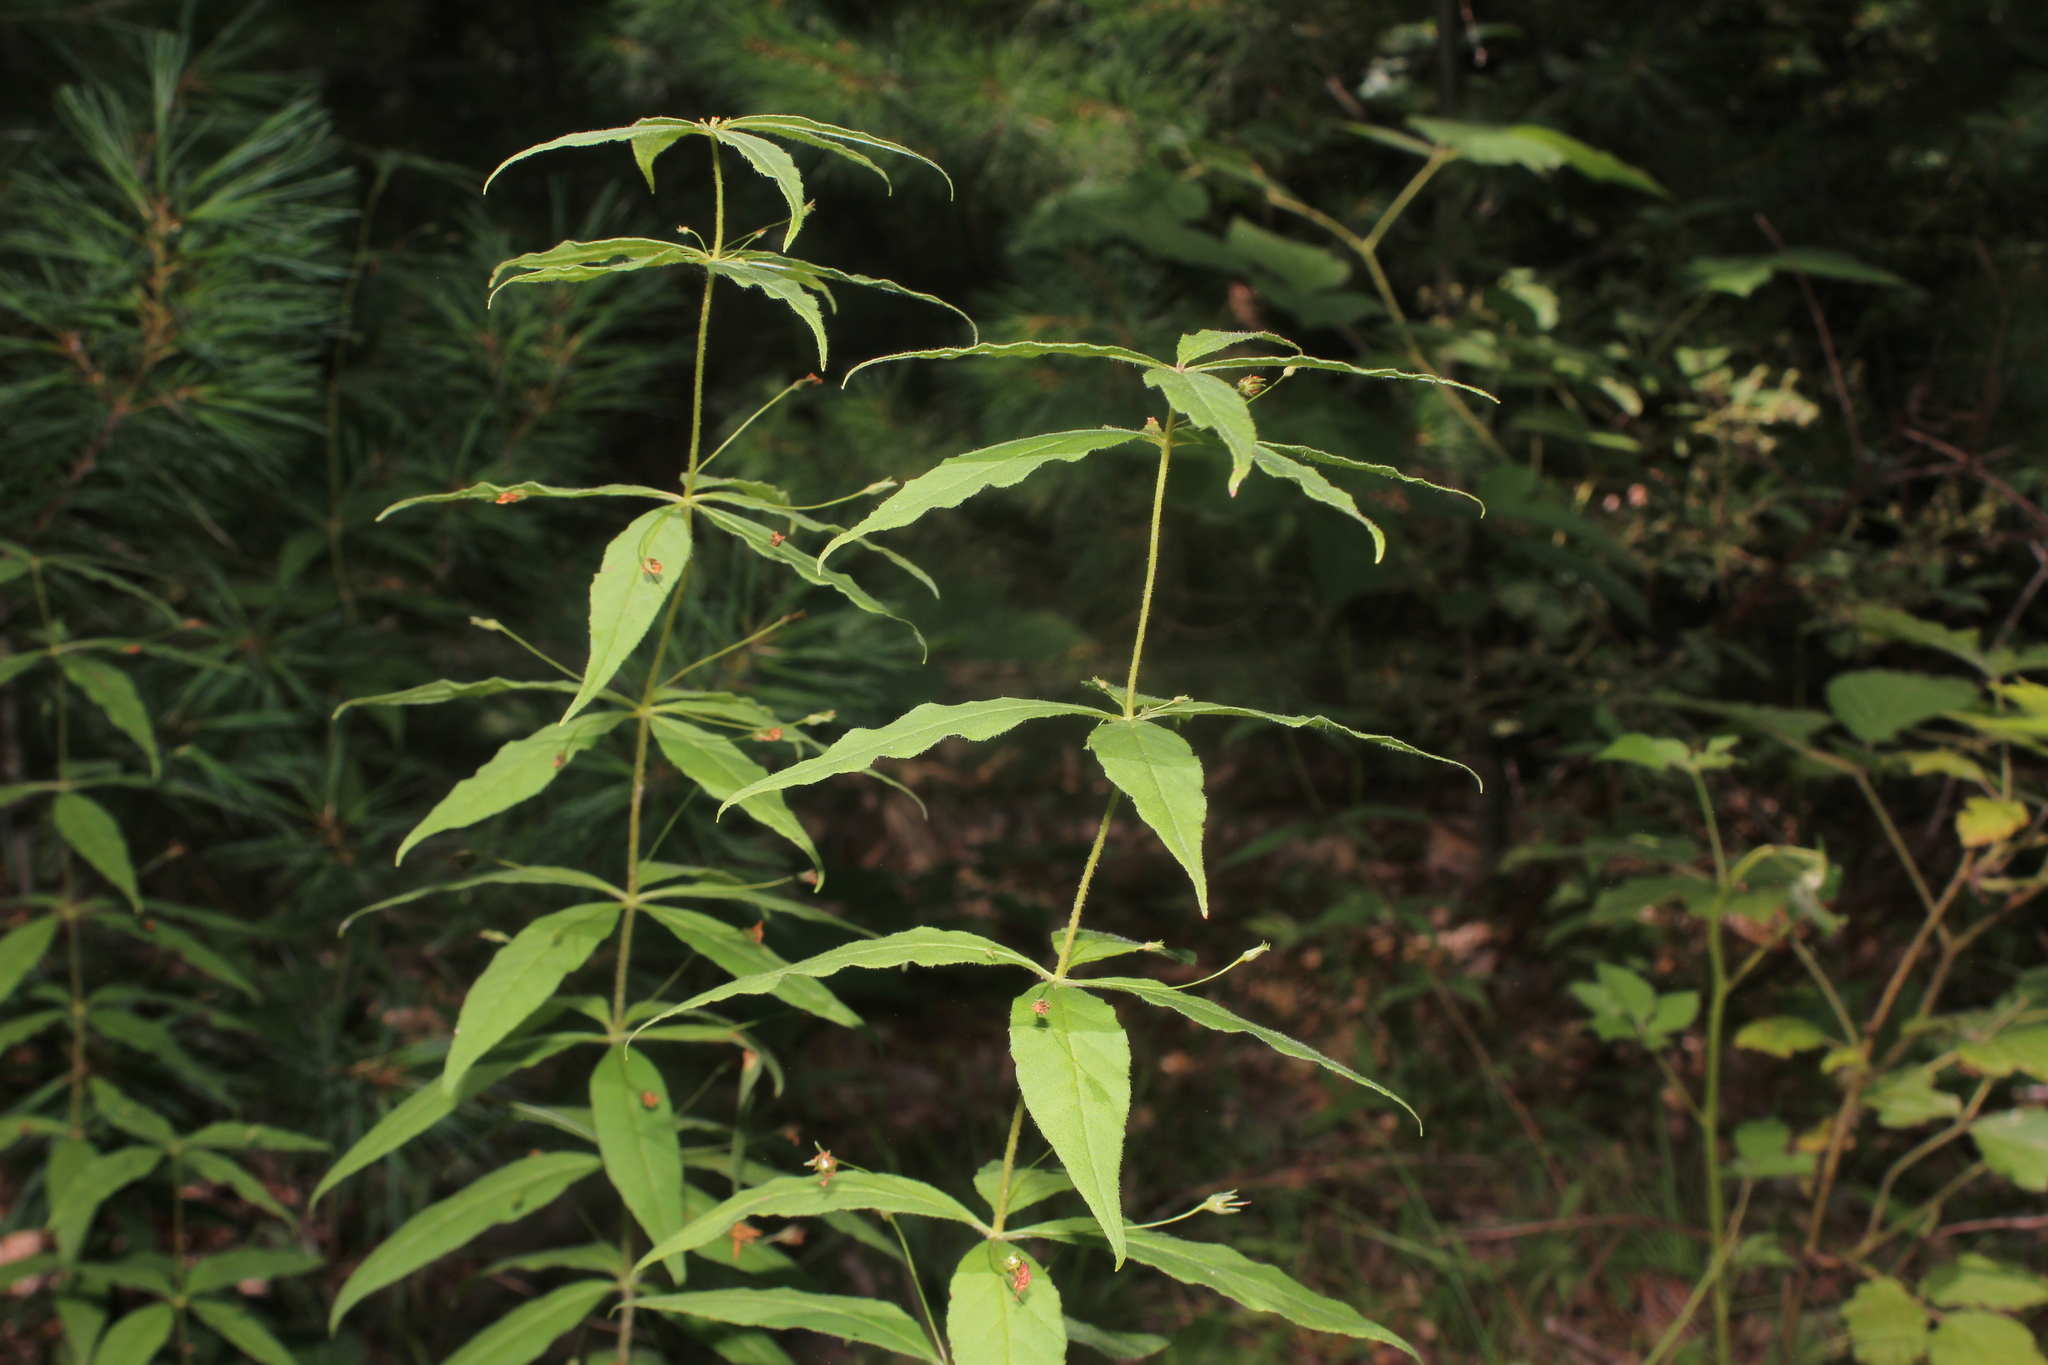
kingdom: Plantae
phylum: Tracheophyta
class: Magnoliopsida
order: Ericales
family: Primulaceae
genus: Lysimachia
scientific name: Lysimachia quadrifolia
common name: Whorled loosestrife
